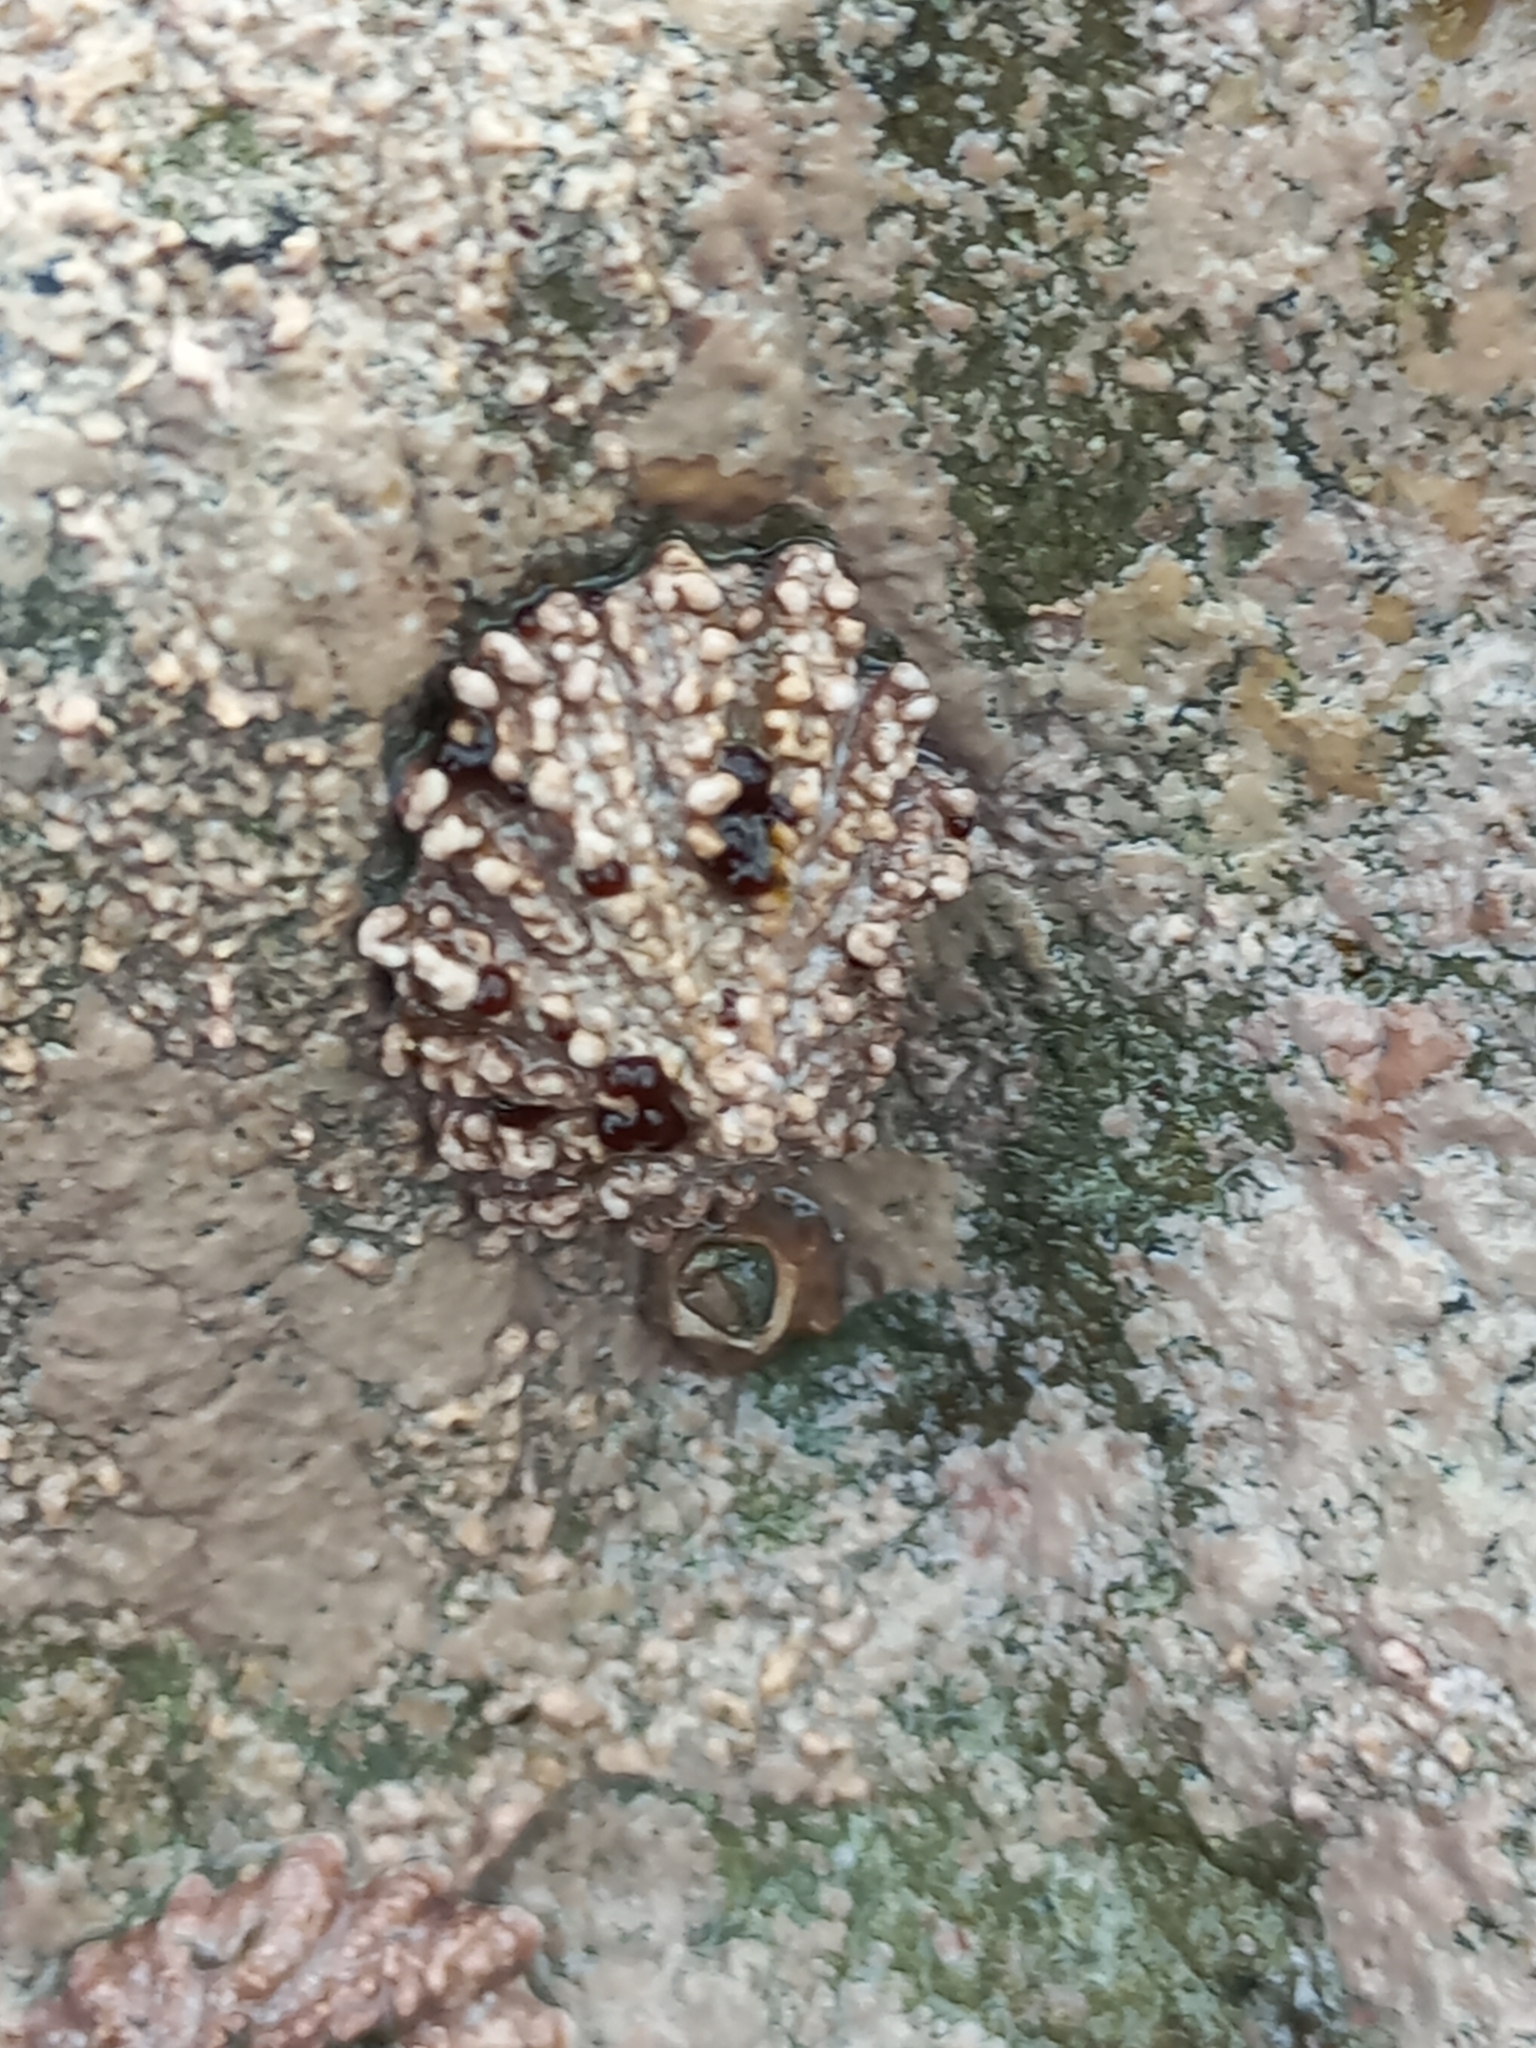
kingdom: Animalia
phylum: Mollusca
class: Gastropoda
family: Lottiidae
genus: Patelloida
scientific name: Patelloida corticata
